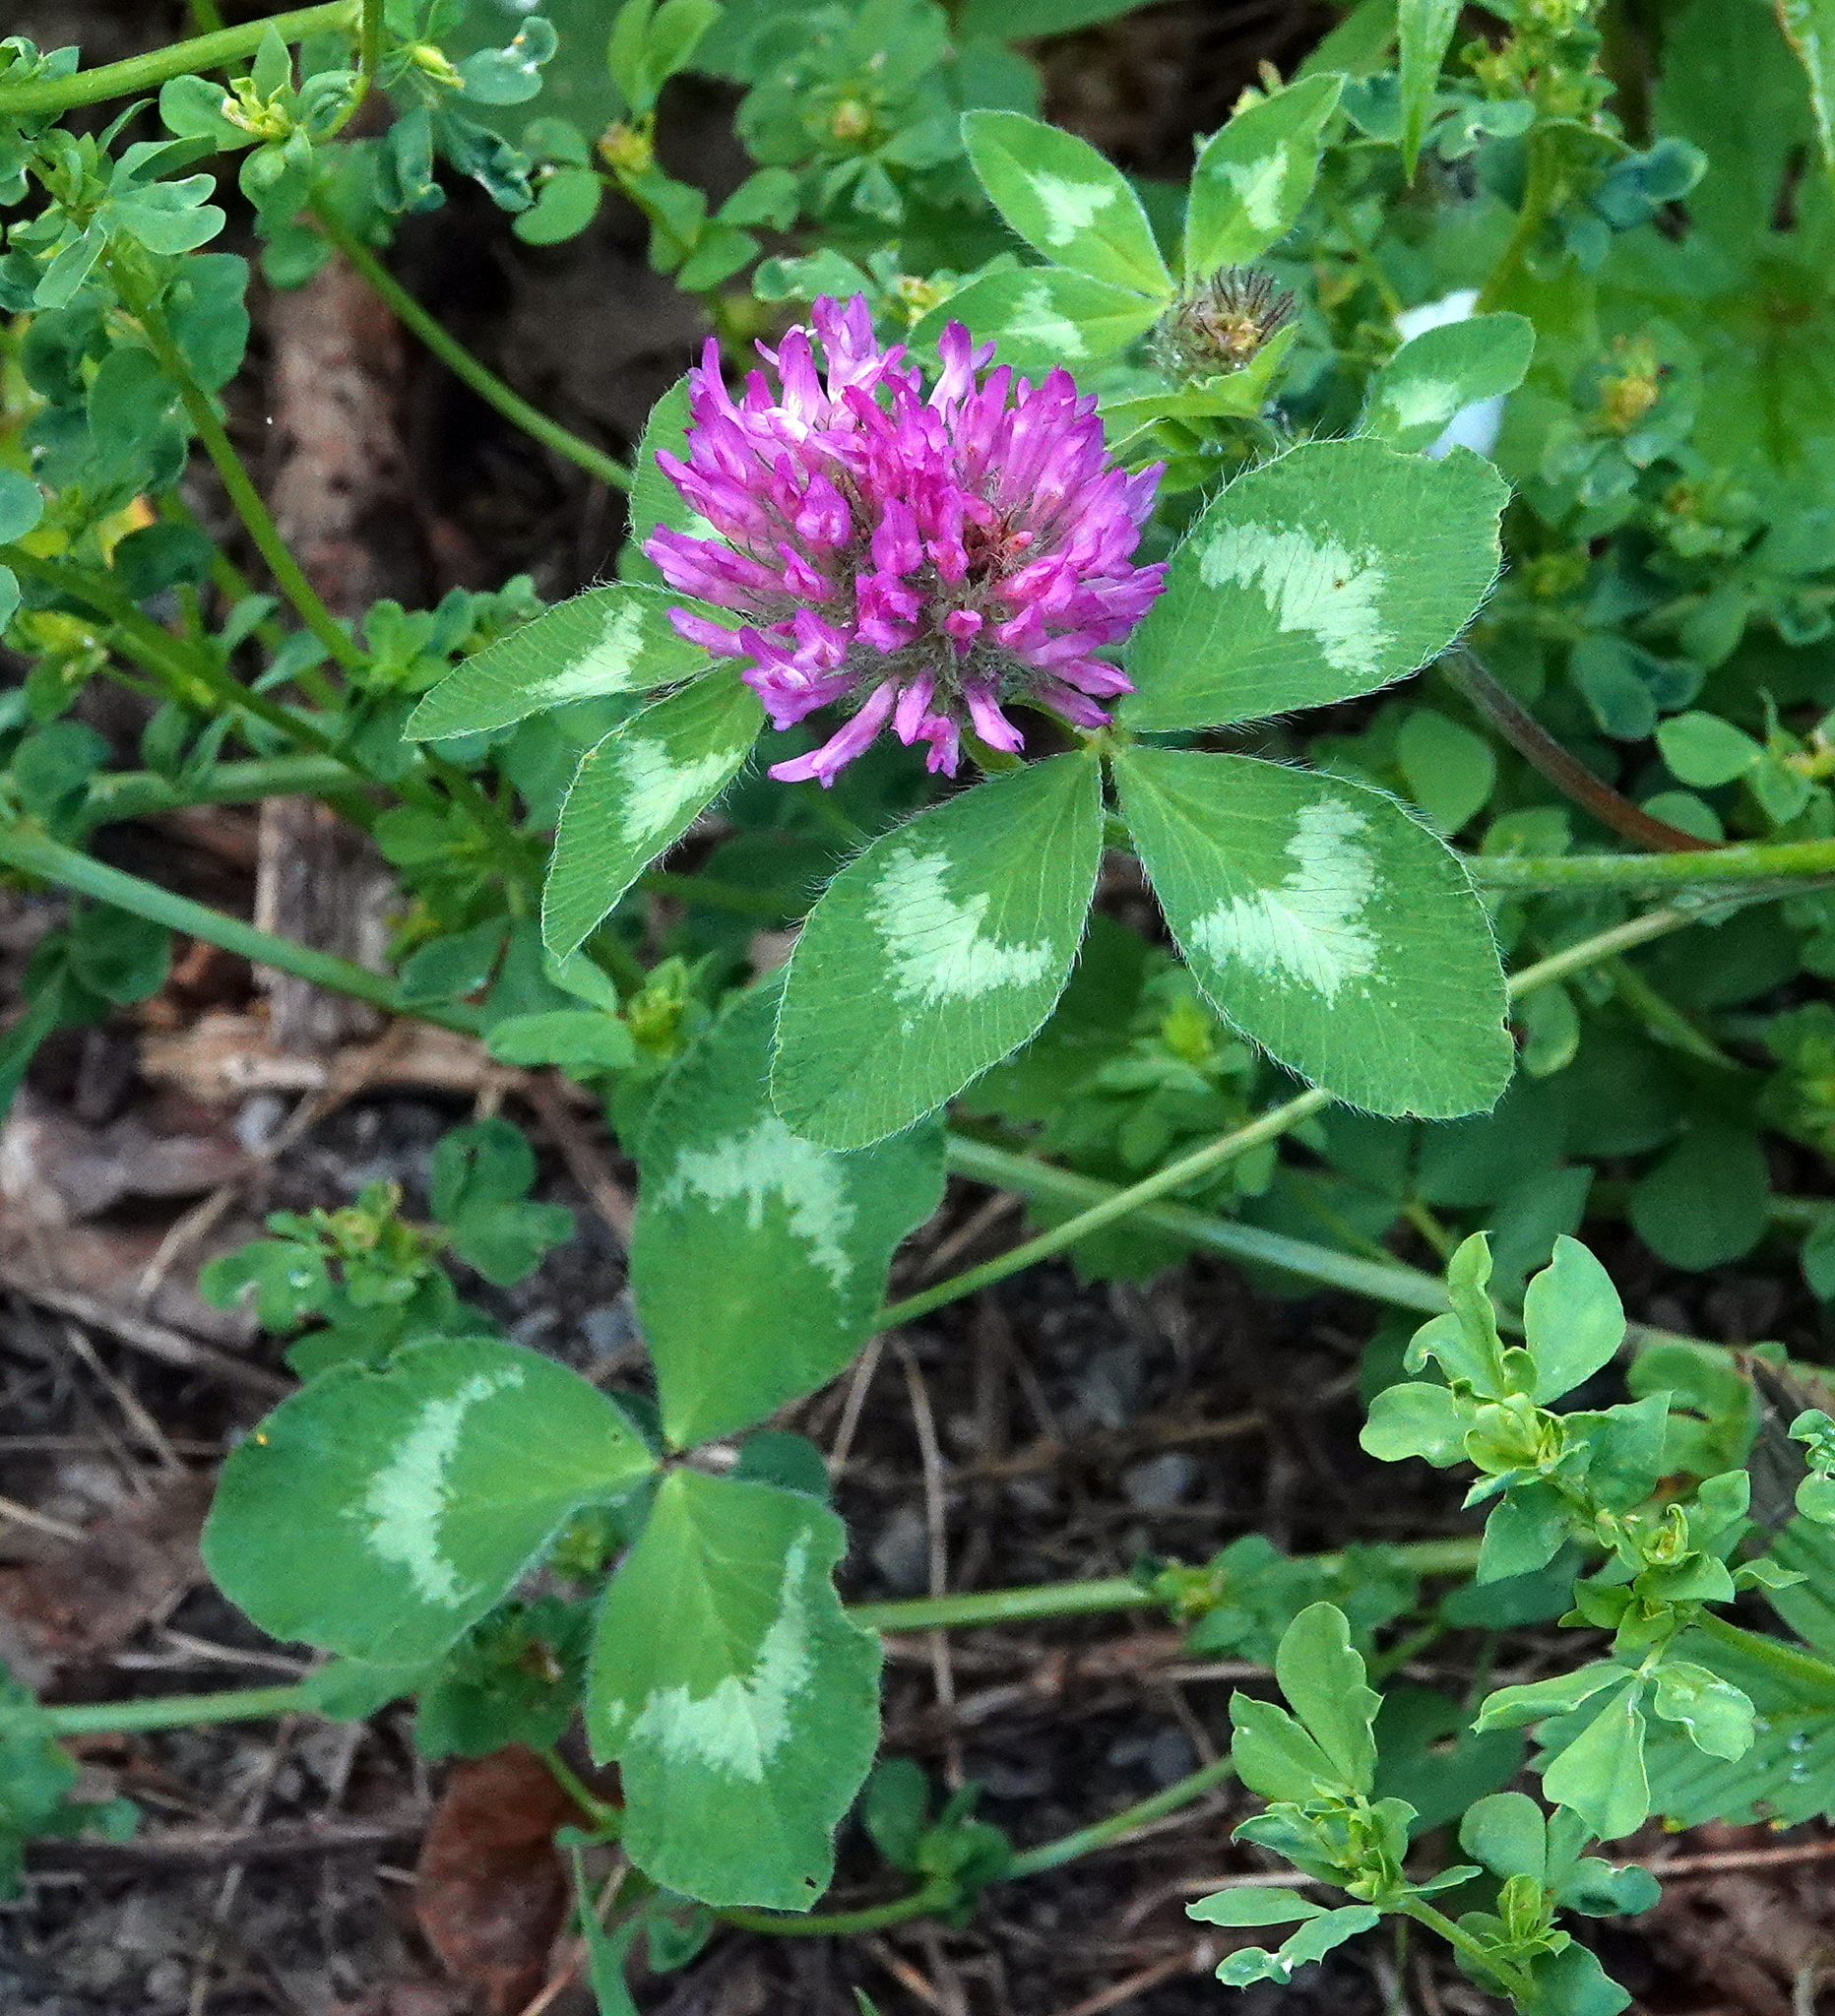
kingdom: Plantae
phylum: Tracheophyta
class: Magnoliopsida
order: Fabales
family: Fabaceae
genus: Trifolium
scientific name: Trifolium pratense
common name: Red clover
